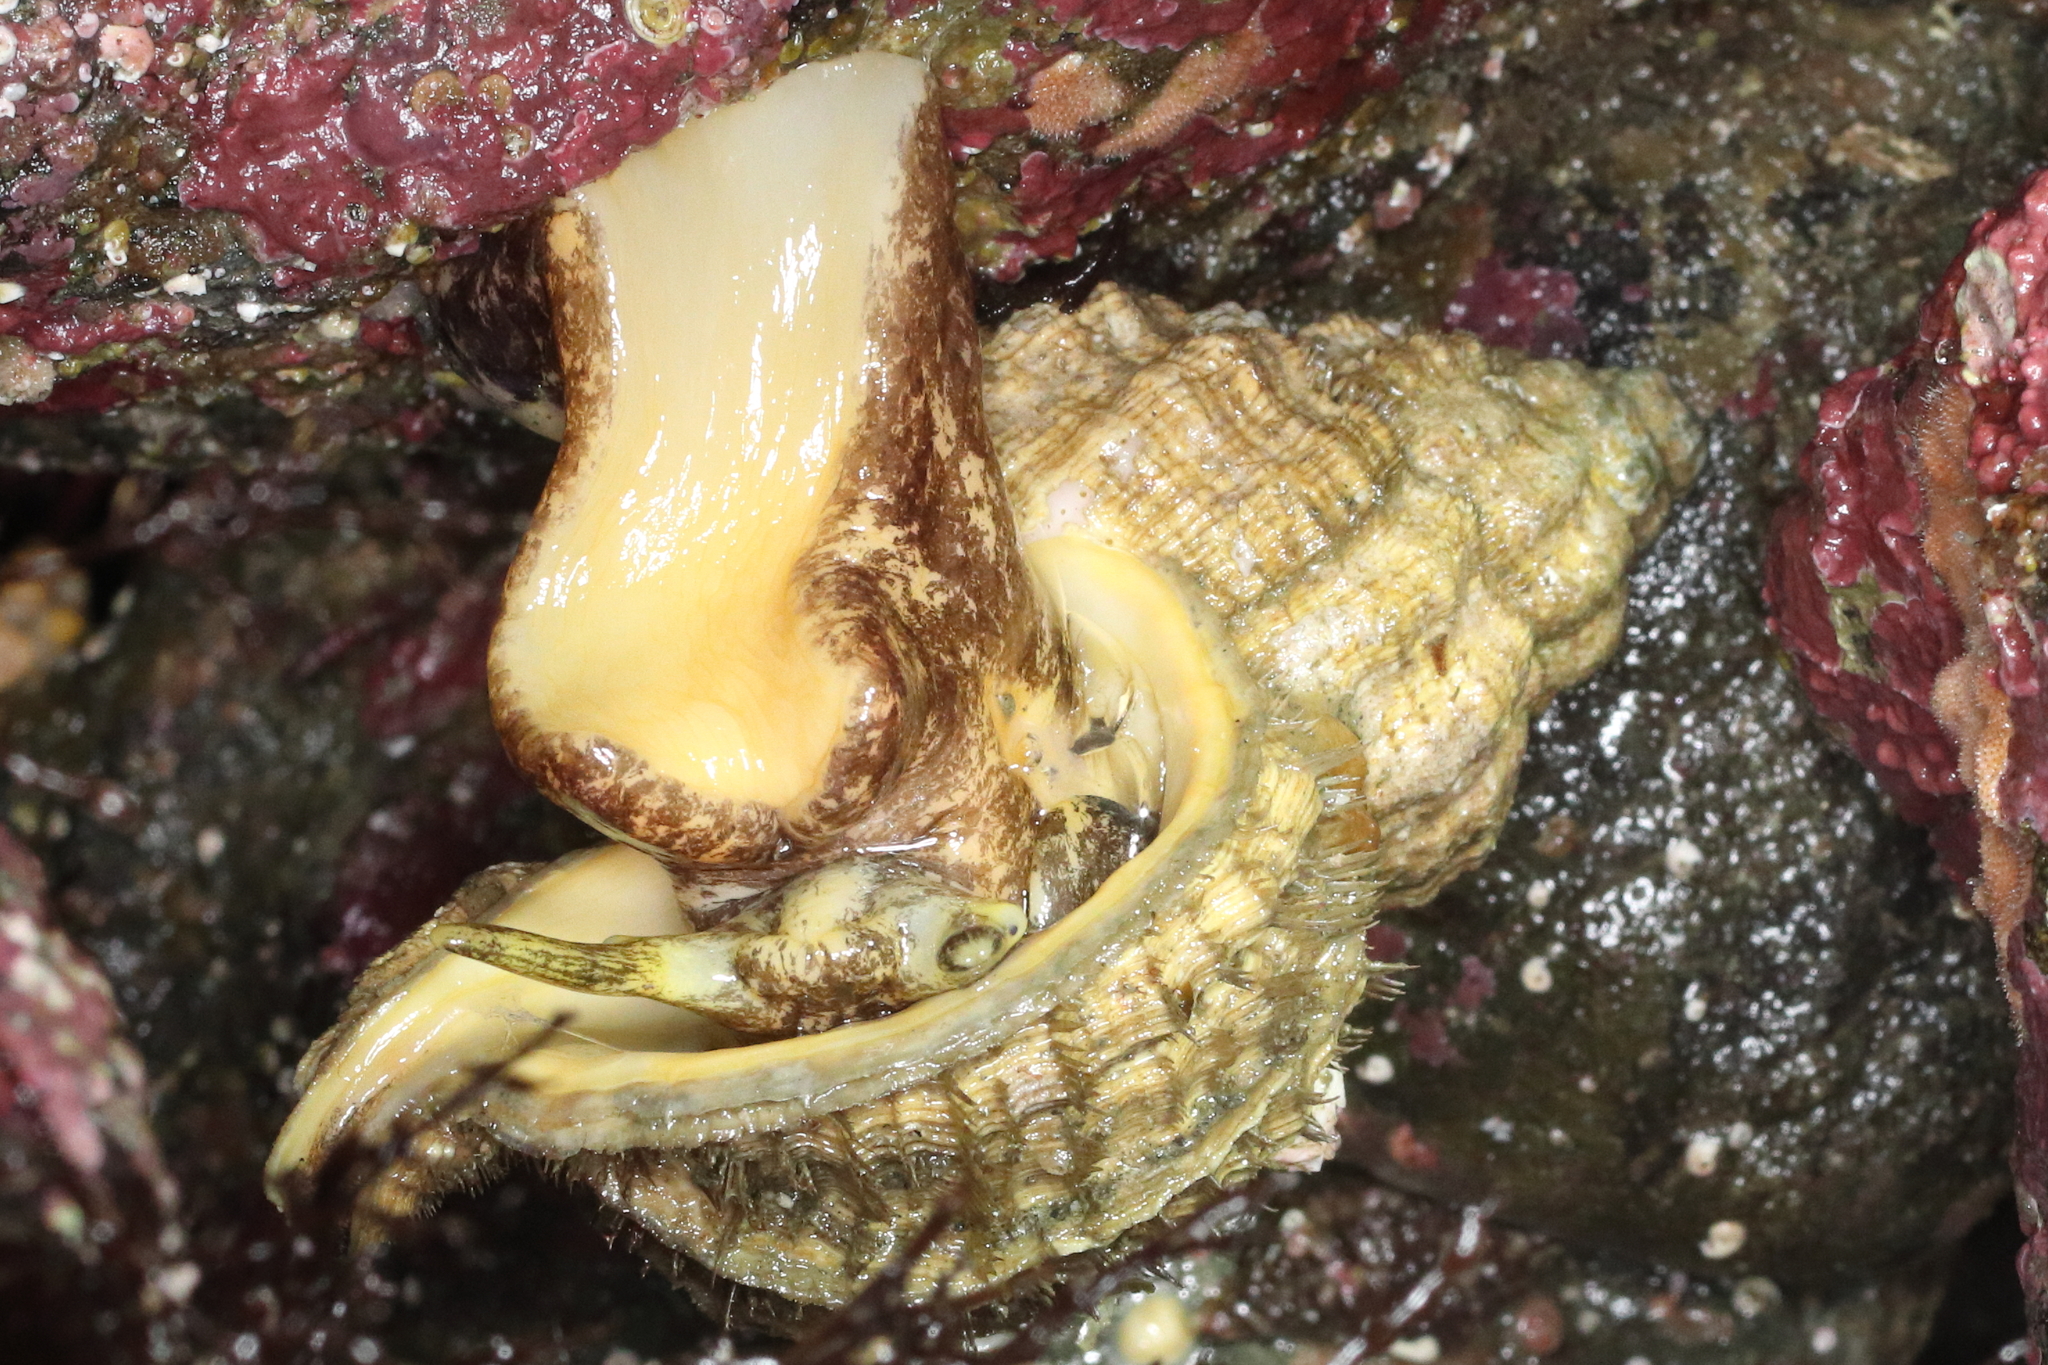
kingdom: Animalia
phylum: Mollusca
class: Gastropoda
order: Littorinimorpha
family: Cymatiidae
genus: Fusitriton
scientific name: Fusitriton oregonensis
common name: Oregon hairy triton
